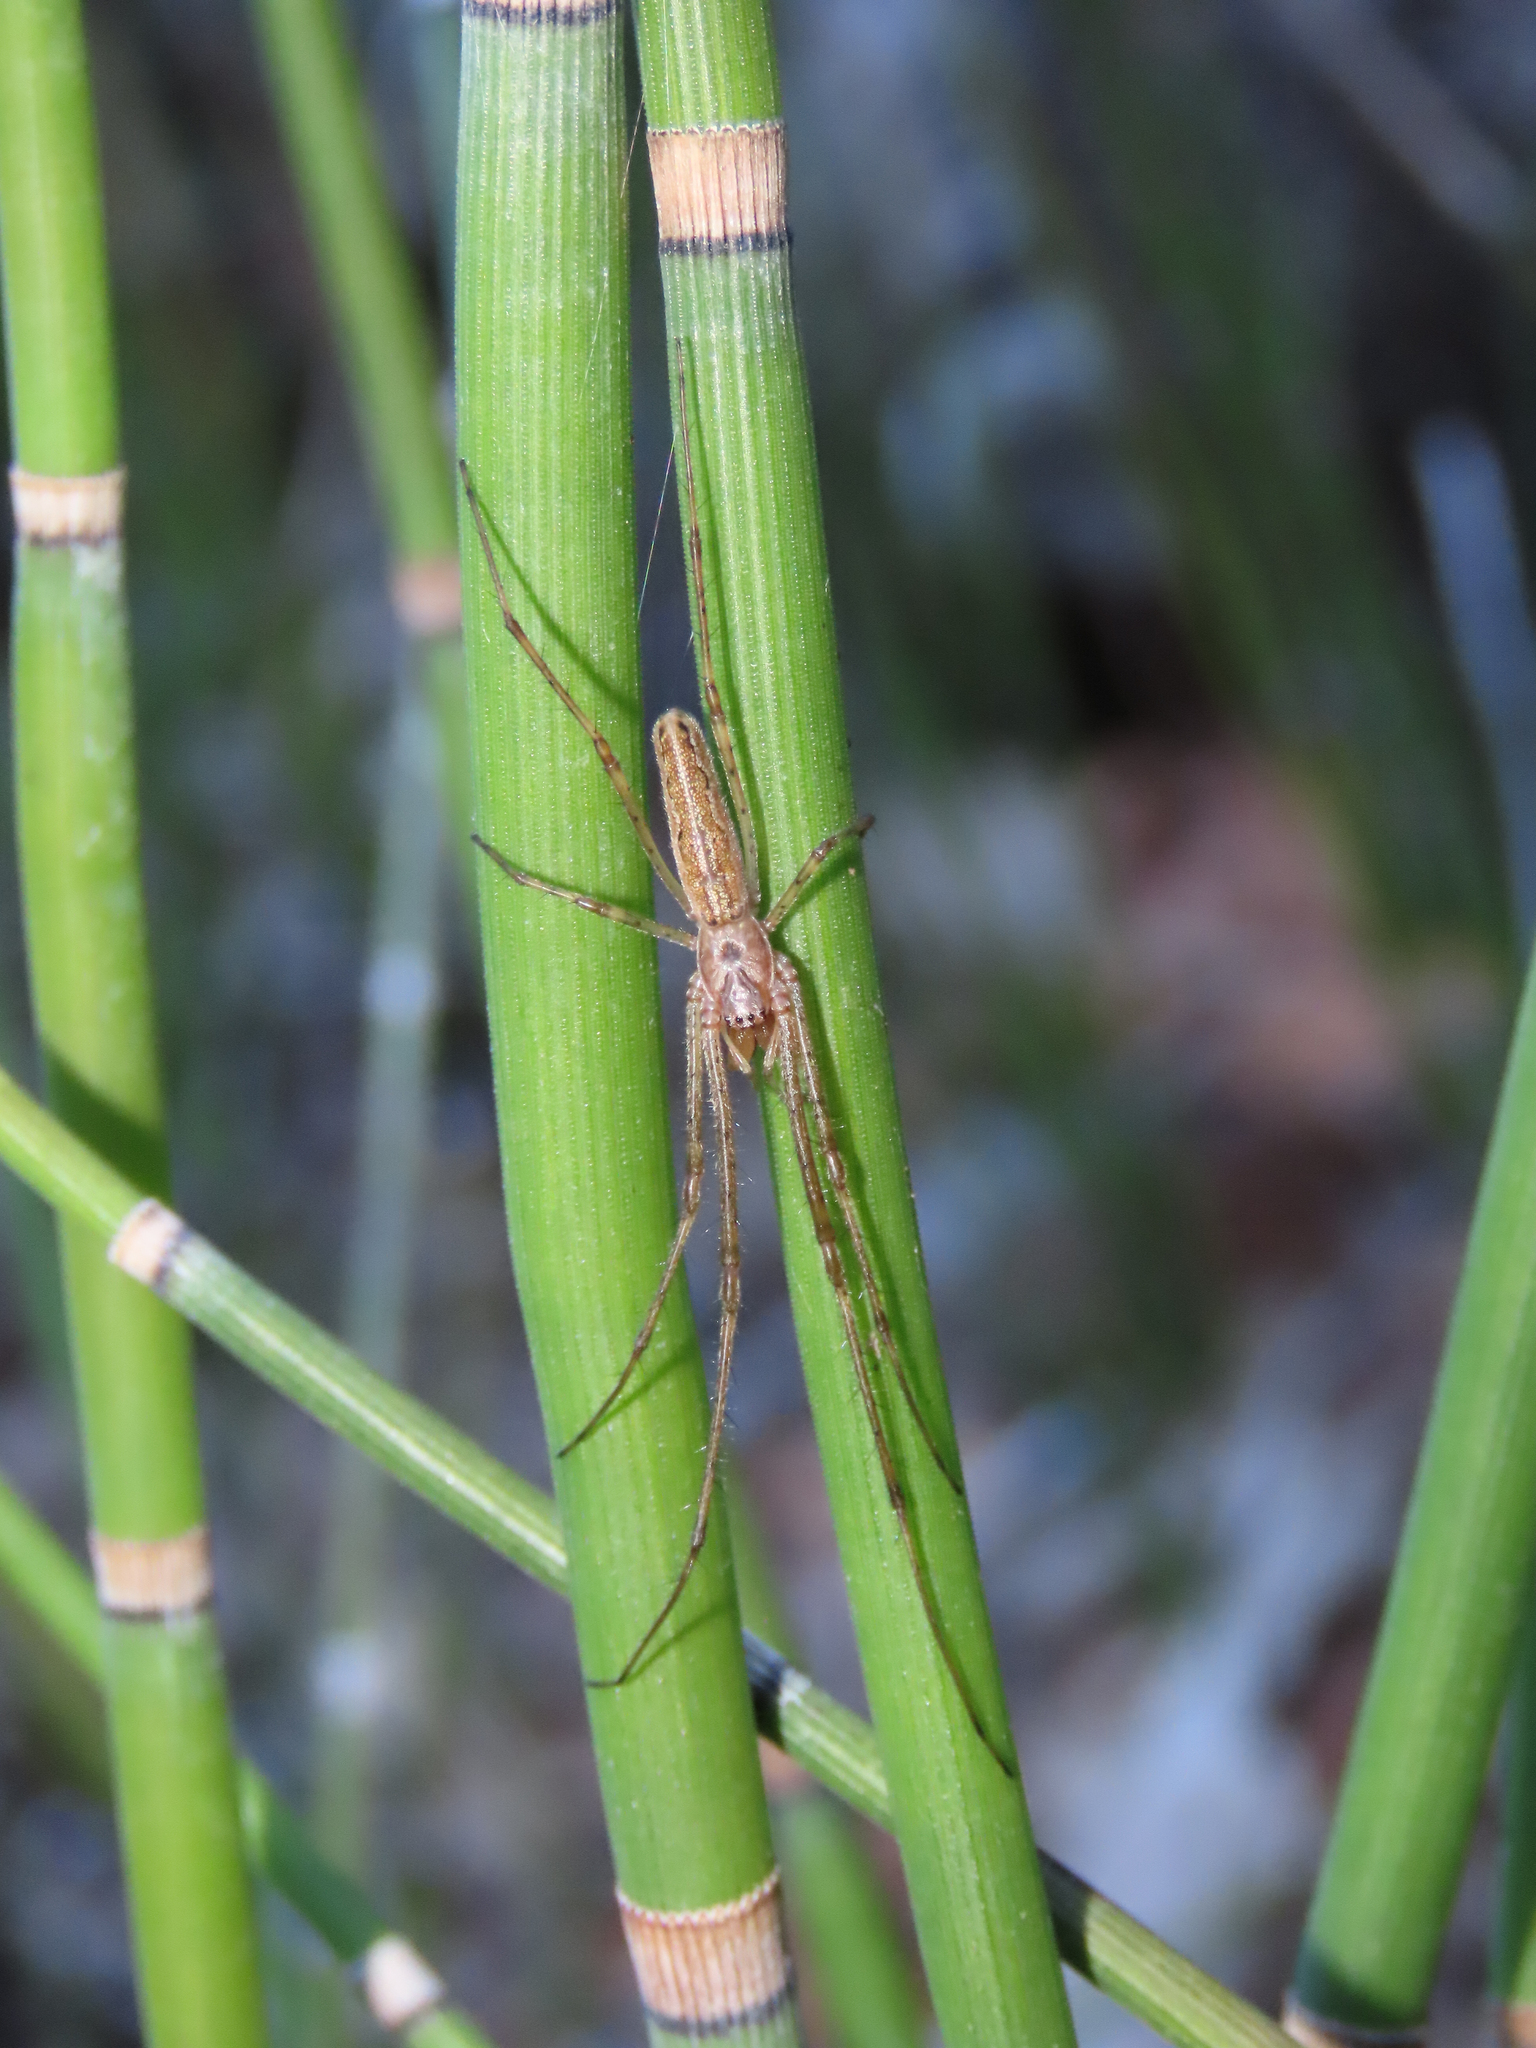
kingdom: Animalia
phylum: Arthropoda
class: Arachnida
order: Araneae
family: Tetragnathidae
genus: Tetragnatha
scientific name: Tetragnatha
